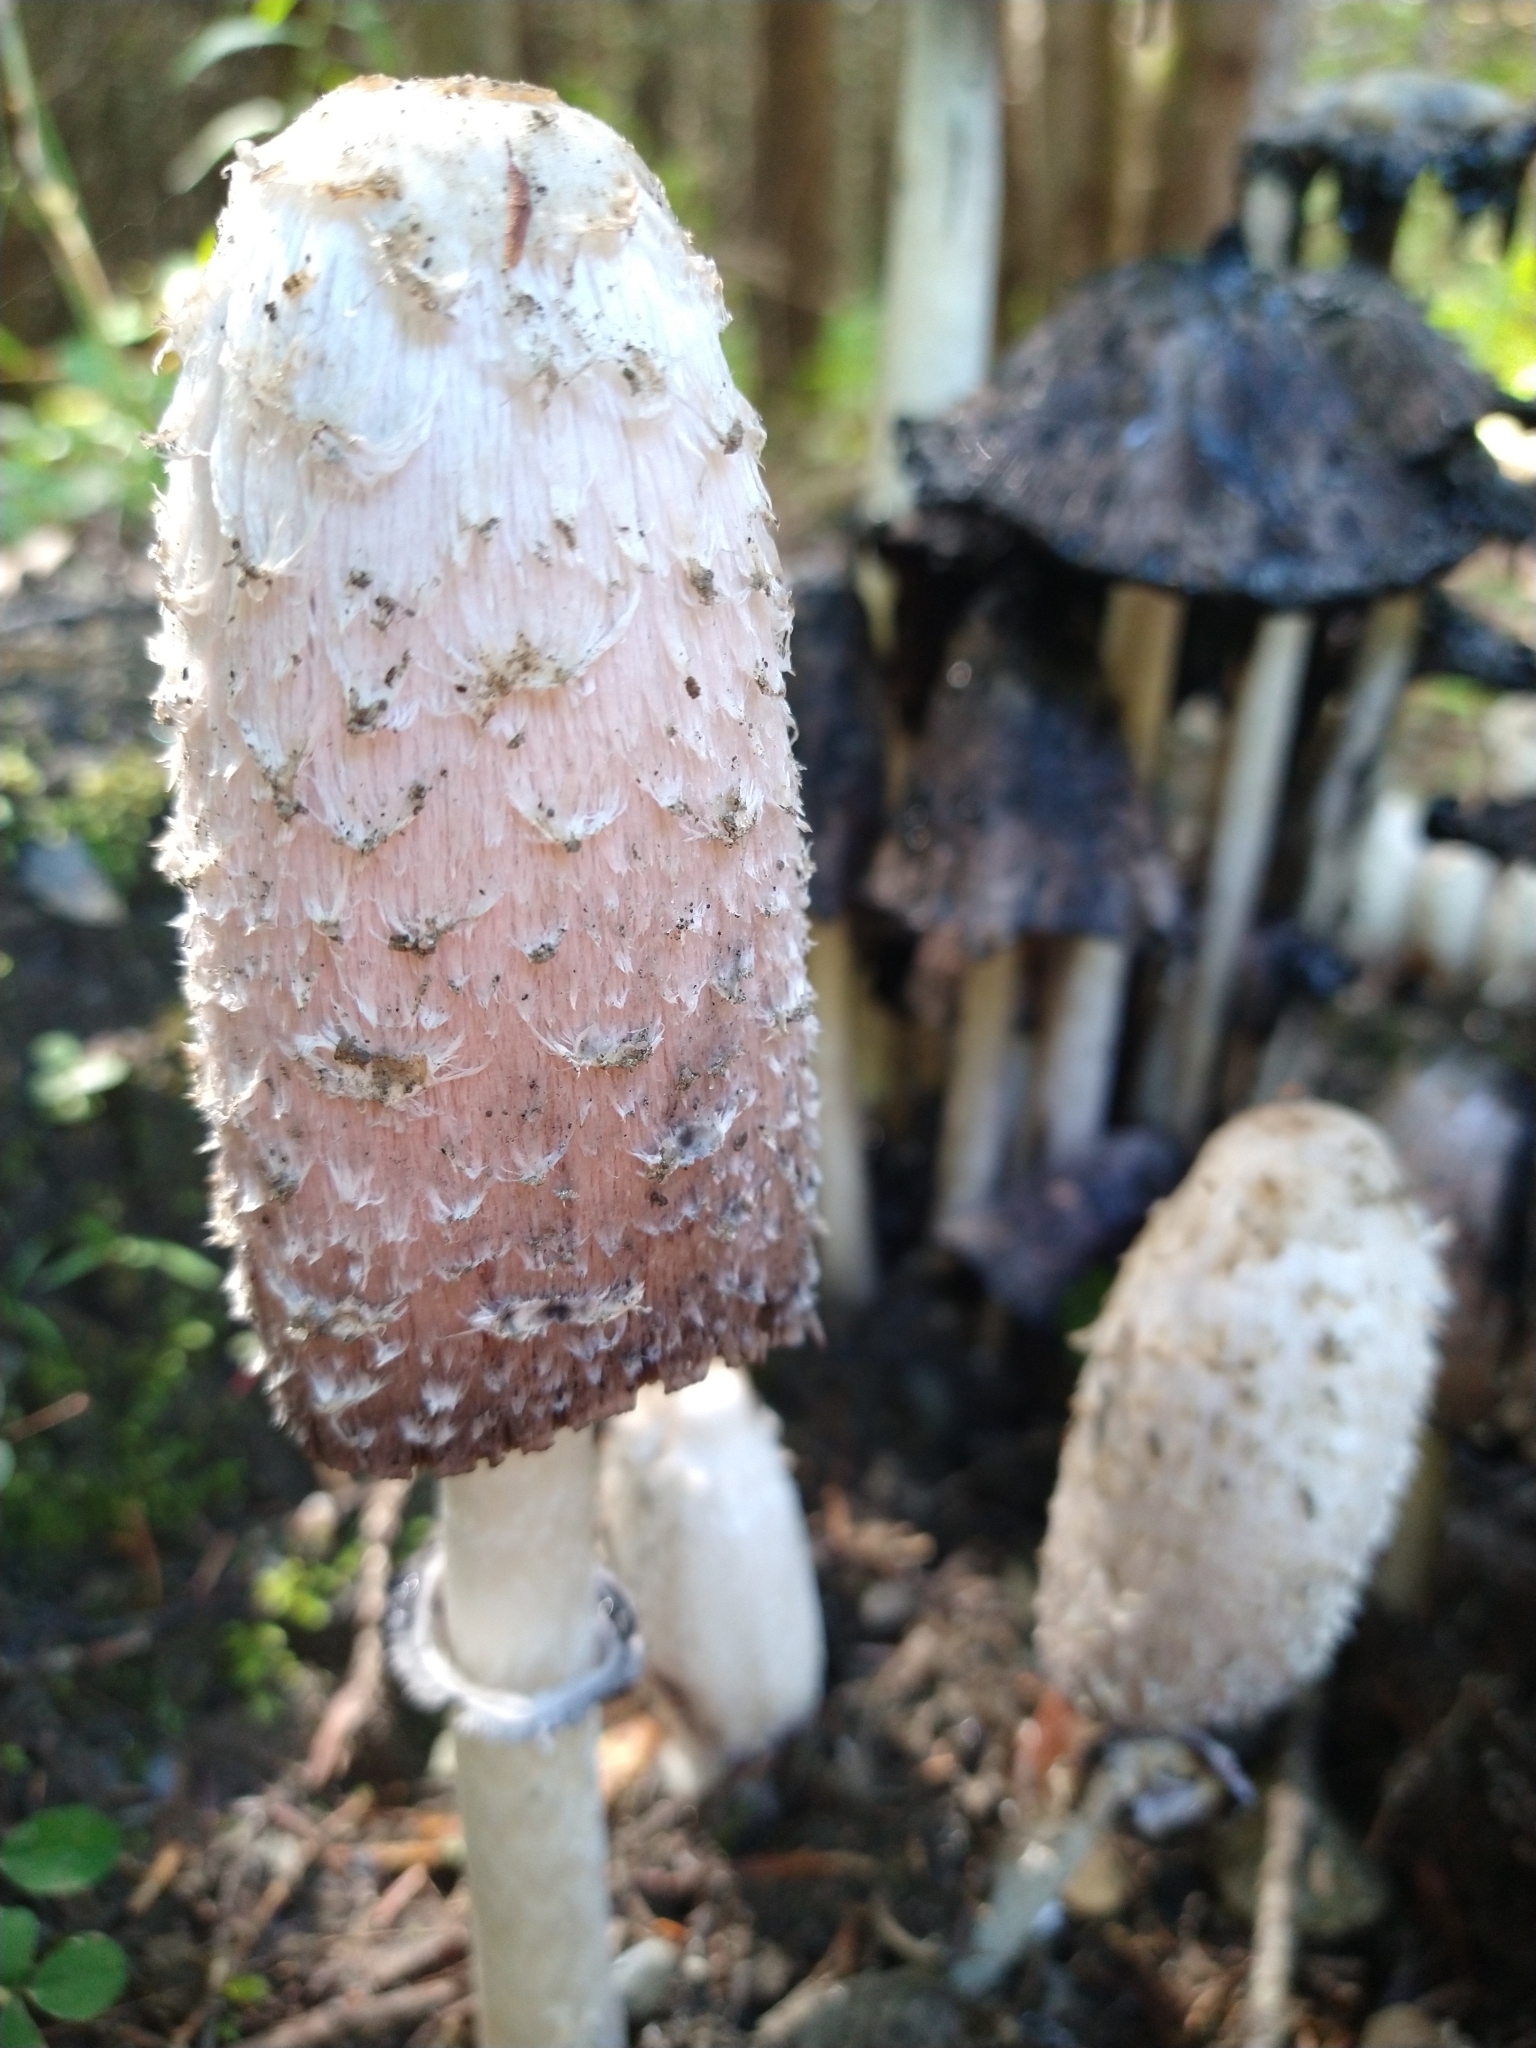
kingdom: Fungi
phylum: Basidiomycota
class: Agaricomycetes
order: Agaricales
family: Agaricaceae
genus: Coprinus
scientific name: Coprinus comatus
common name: Lawyer's wig
